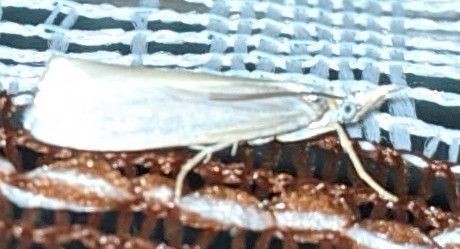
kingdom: Animalia
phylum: Arthropoda
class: Insecta
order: Lepidoptera
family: Crambidae
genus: Crambus
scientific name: Crambus perlellus
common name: Yellow satin veneer
